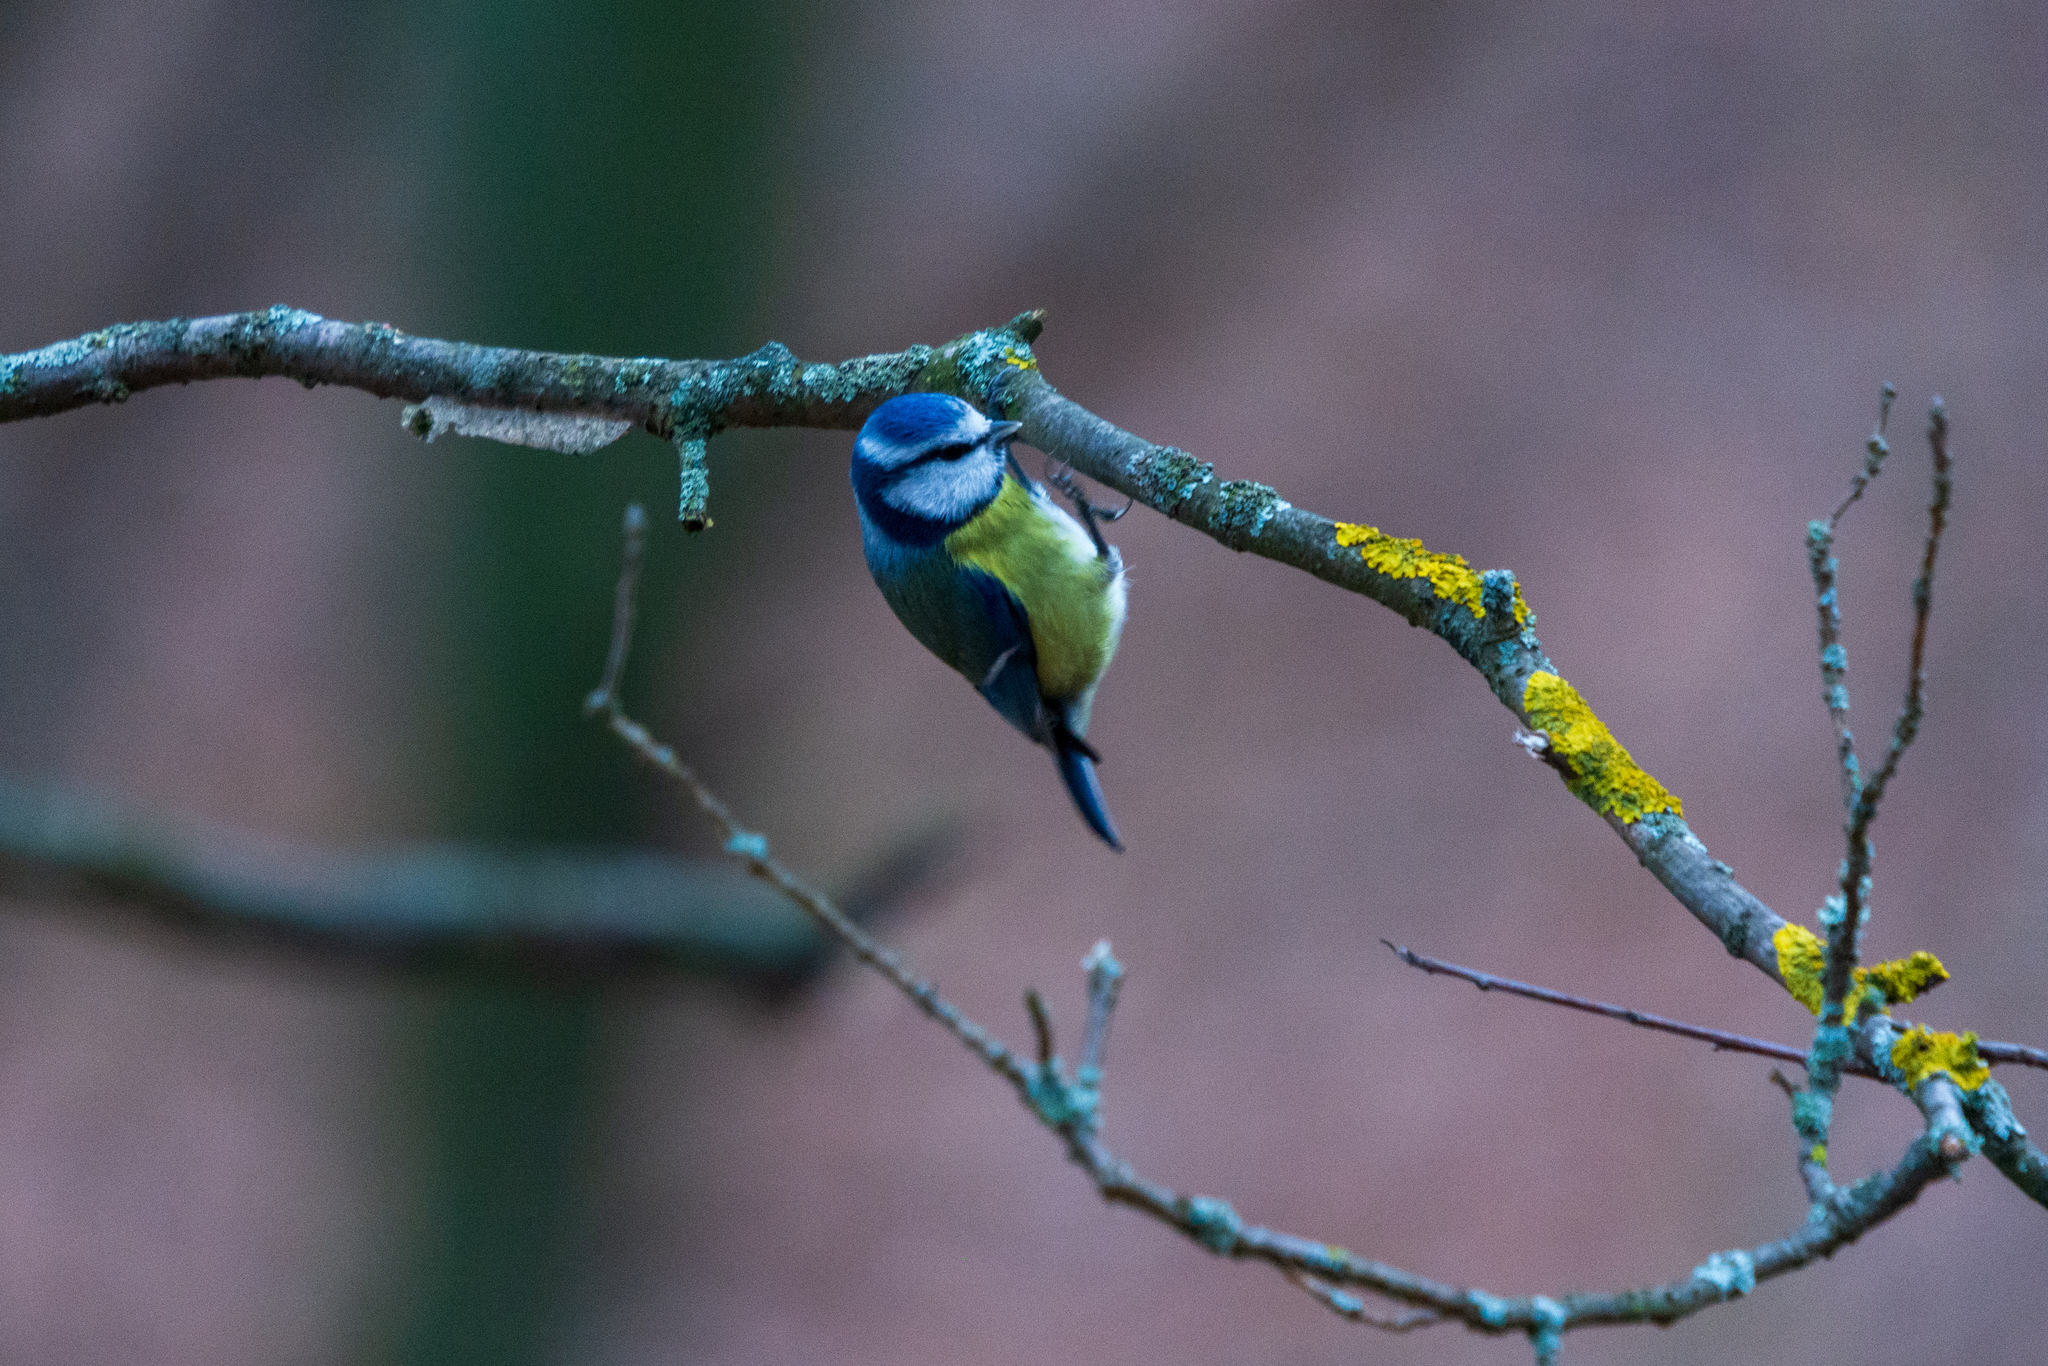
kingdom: Animalia
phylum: Chordata
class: Aves
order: Passeriformes
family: Paridae
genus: Cyanistes
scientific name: Cyanistes caeruleus
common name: Eurasian blue tit
